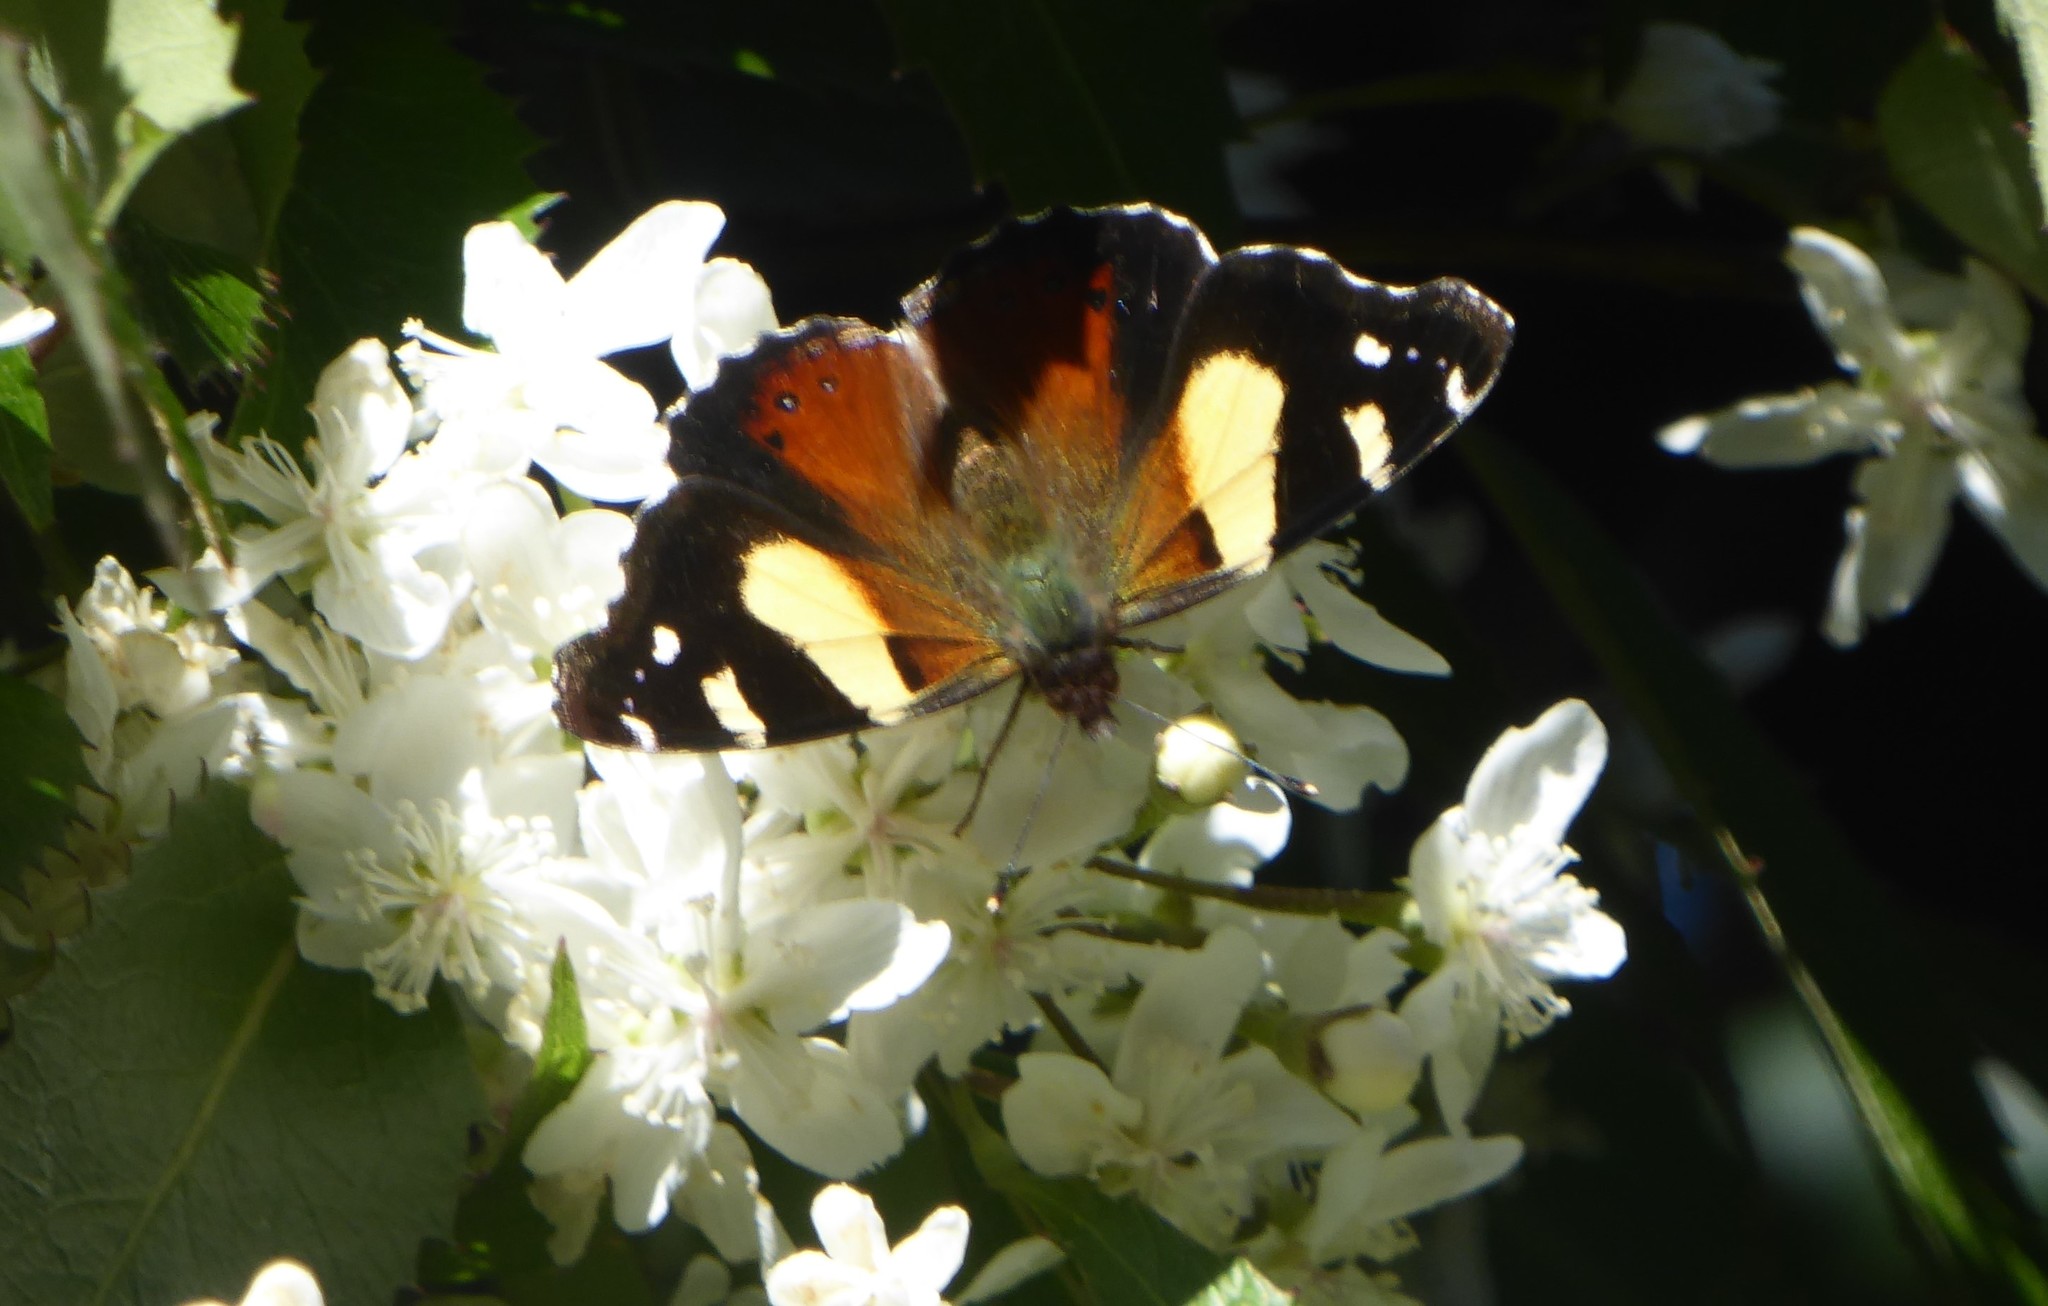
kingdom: Animalia
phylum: Arthropoda
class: Insecta
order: Lepidoptera
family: Nymphalidae
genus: Vanessa
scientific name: Vanessa itea
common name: Yellow admiral
